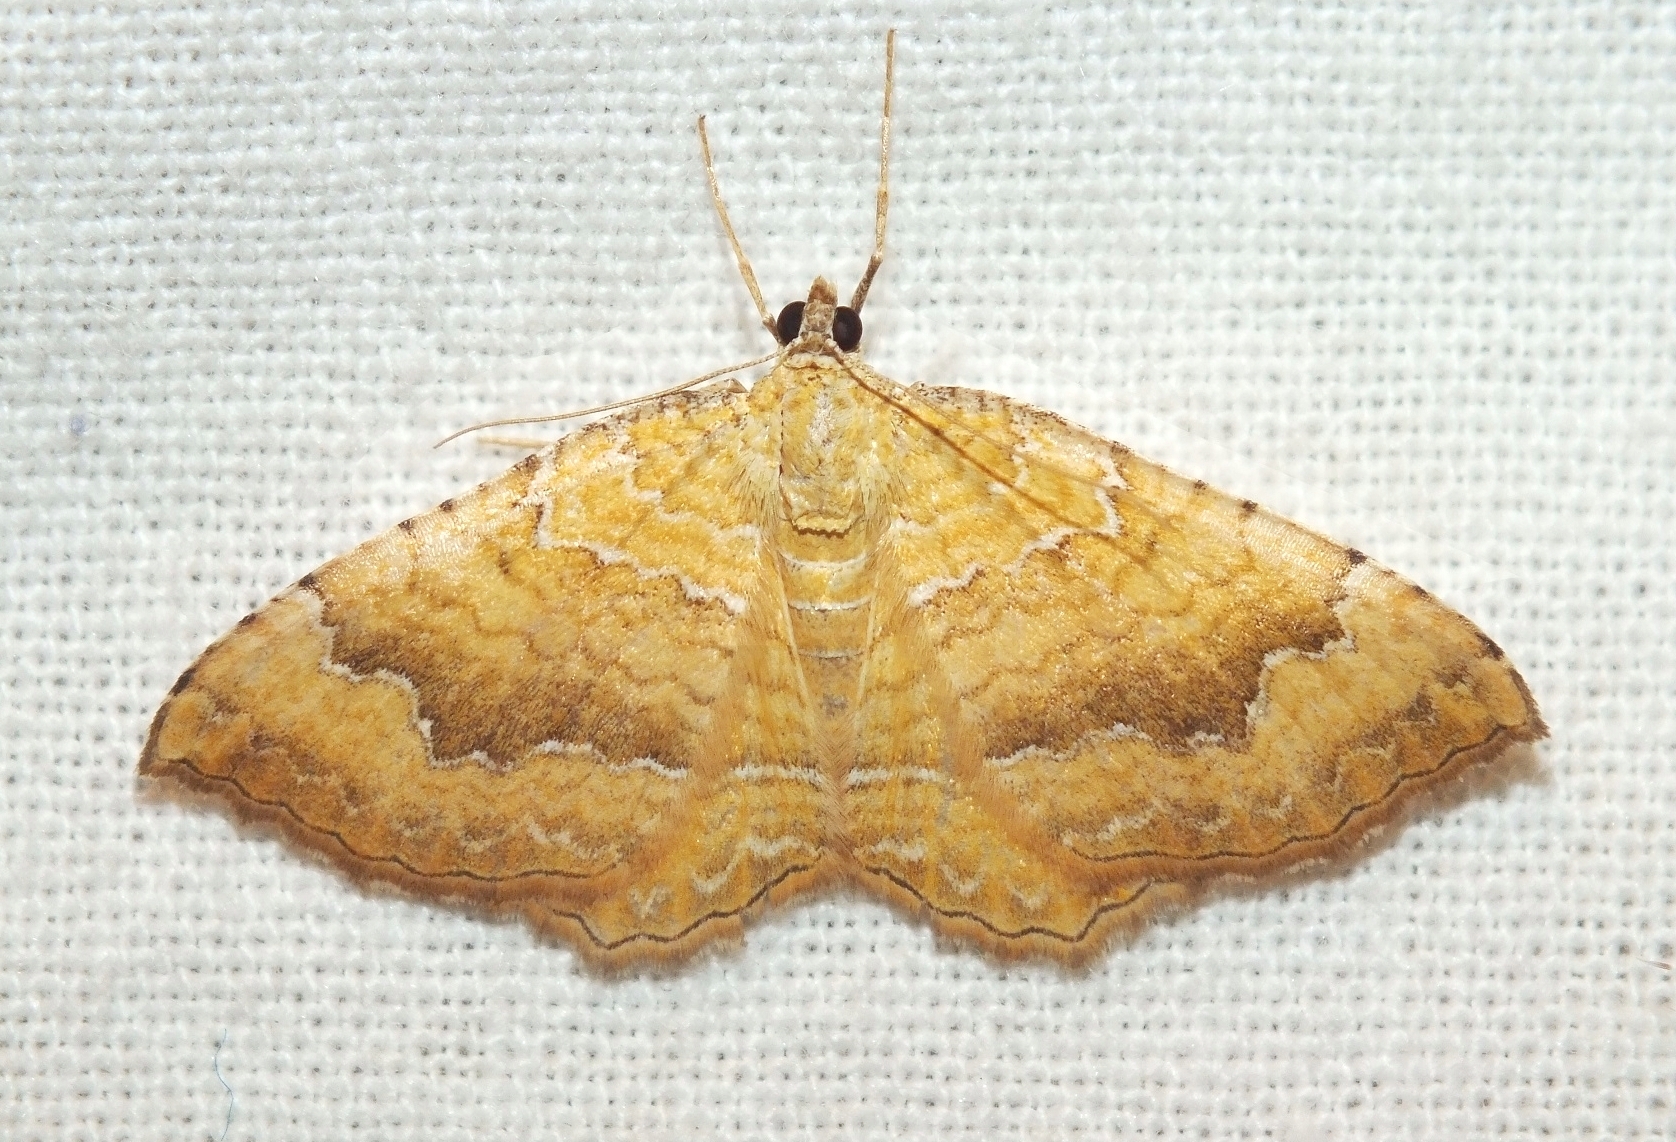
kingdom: Animalia
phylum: Arthropoda
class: Insecta
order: Lepidoptera
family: Geometridae
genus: Camptogramma
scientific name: Camptogramma bilineata
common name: Yellow shell
